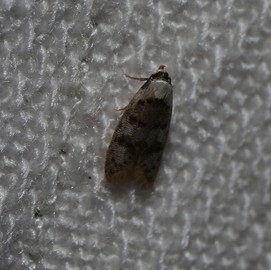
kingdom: Animalia
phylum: Arthropoda
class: Insecta
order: Lepidoptera
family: Oecophoridae
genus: Scatochresis
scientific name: Scatochresis innumera
